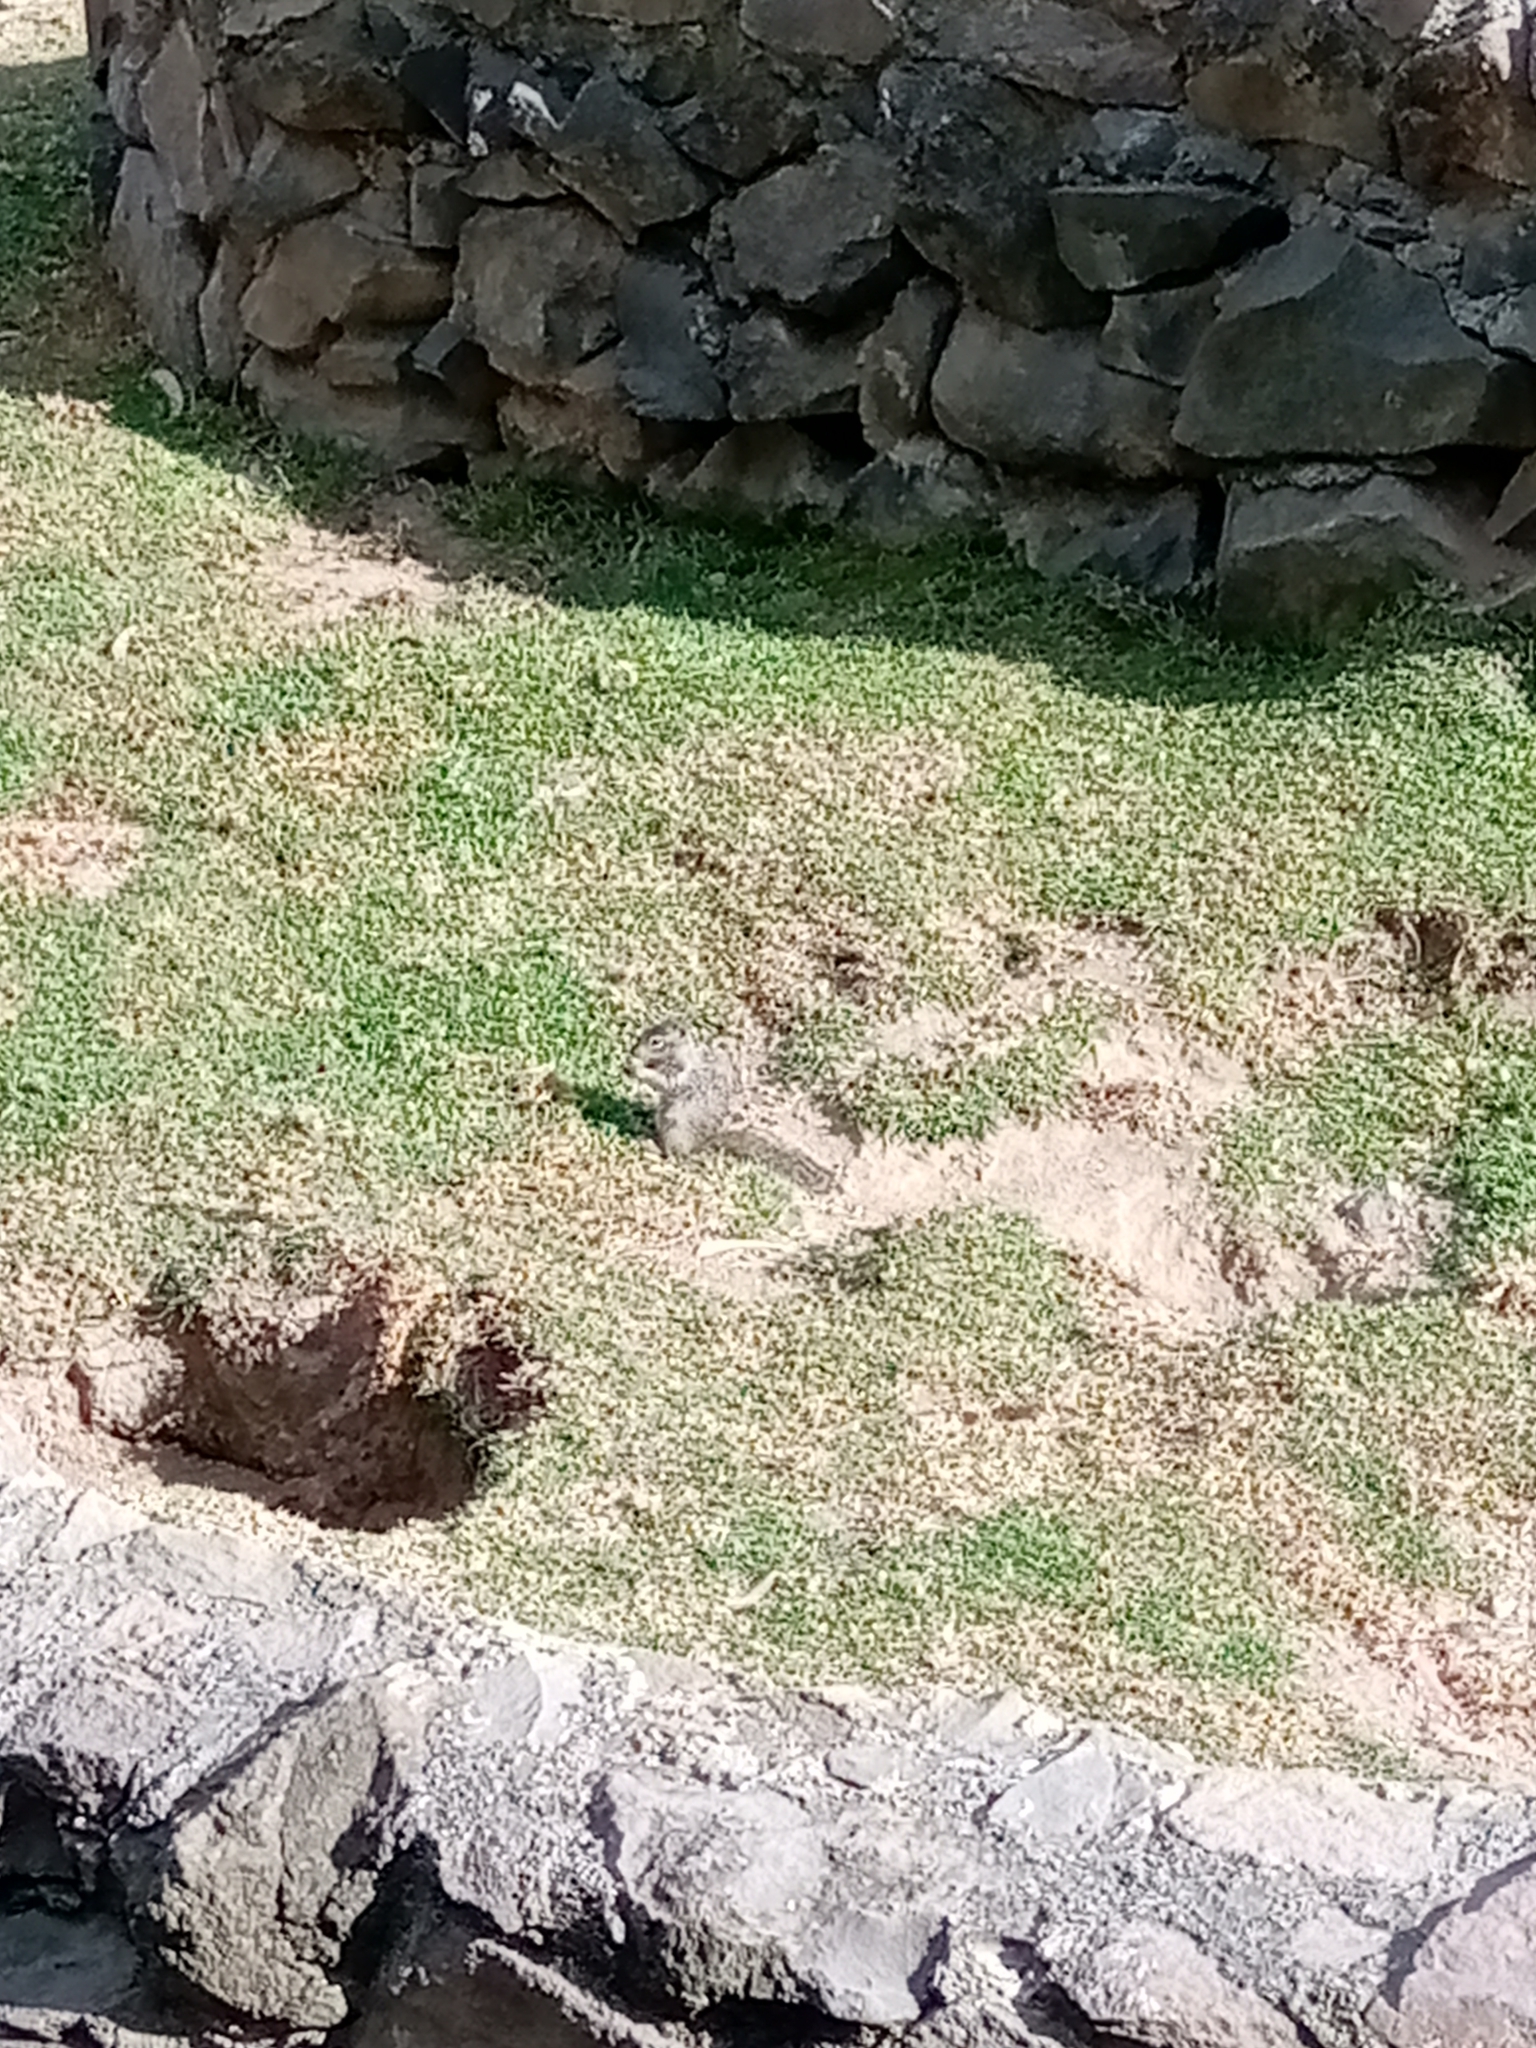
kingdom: Animalia
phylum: Chordata
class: Mammalia
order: Rodentia
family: Sciuridae
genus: Otospermophilus
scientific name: Otospermophilus variegatus
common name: Rock squirrel
